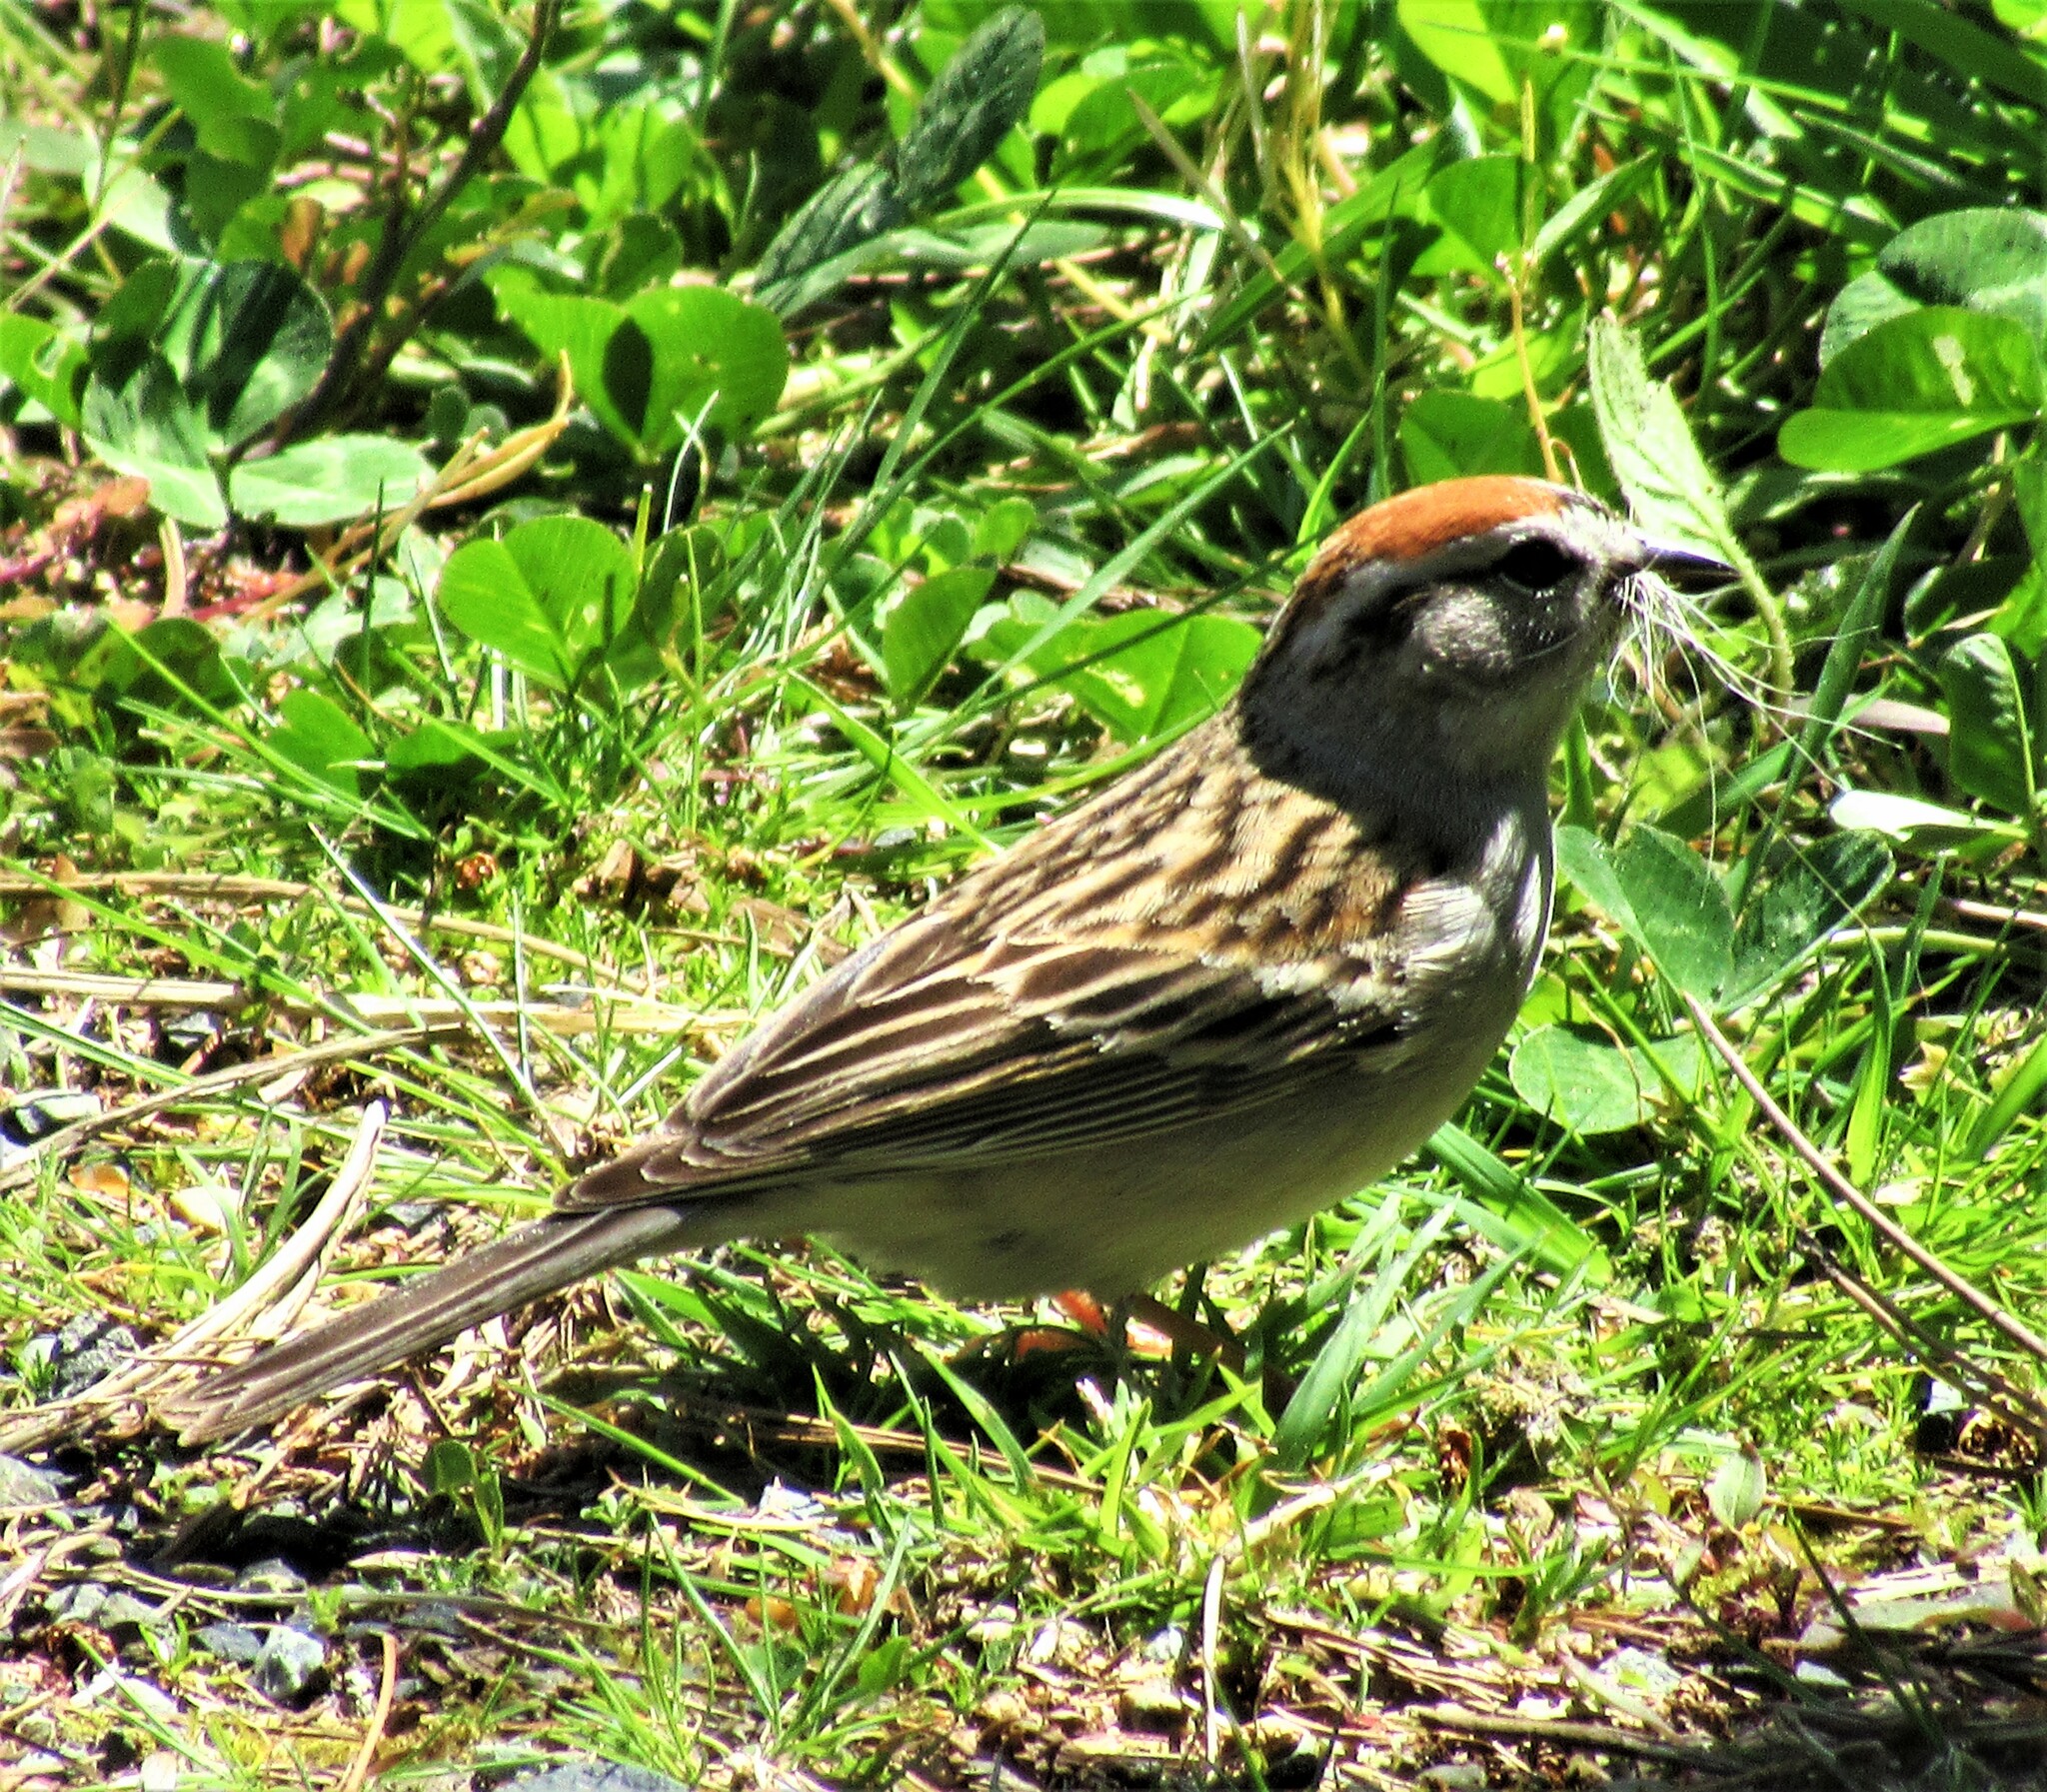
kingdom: Animalia
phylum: Chordata
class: Aves
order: Passeriformes
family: Passerellidae
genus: Spizella
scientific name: Spizella passerina
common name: Chipping sparrow
